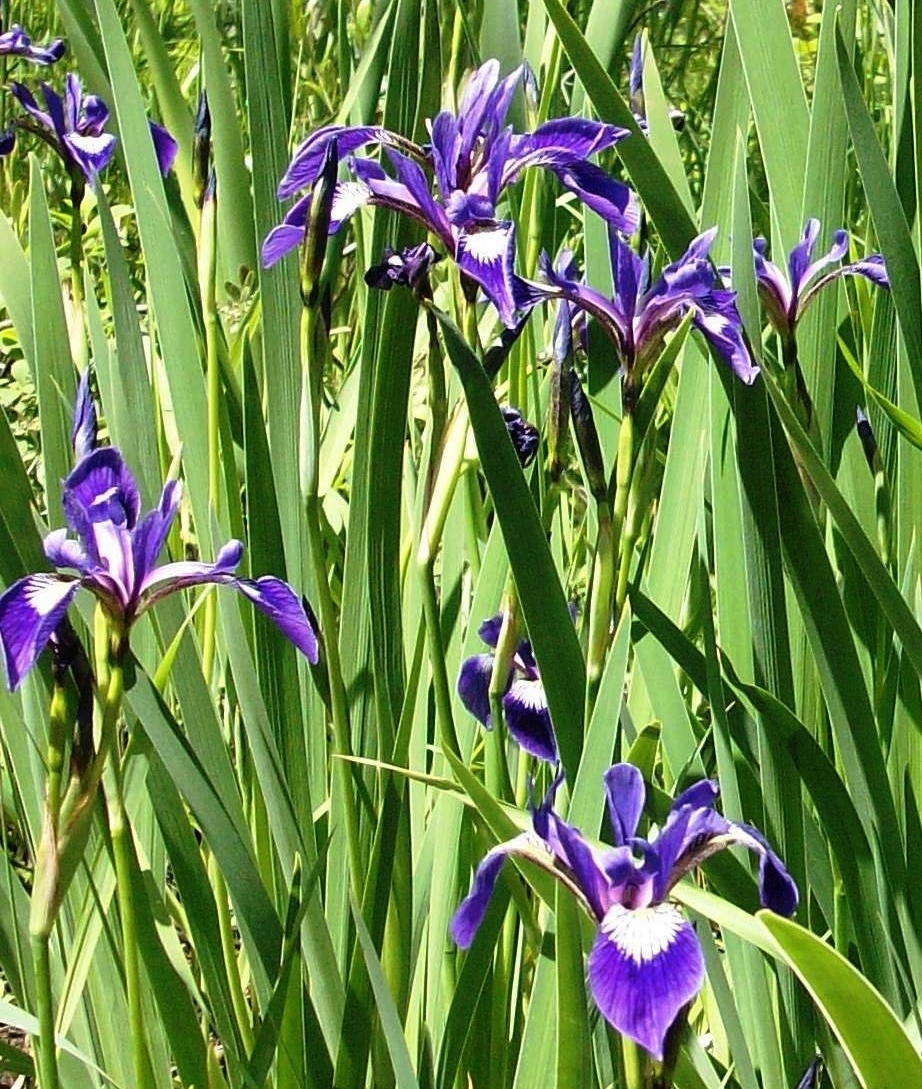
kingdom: Plantae
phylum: Tracheophyta
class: Liliopsida
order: Asparagales
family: Iridaceae
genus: Iris
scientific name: Iris versicolor
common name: Purple iris
